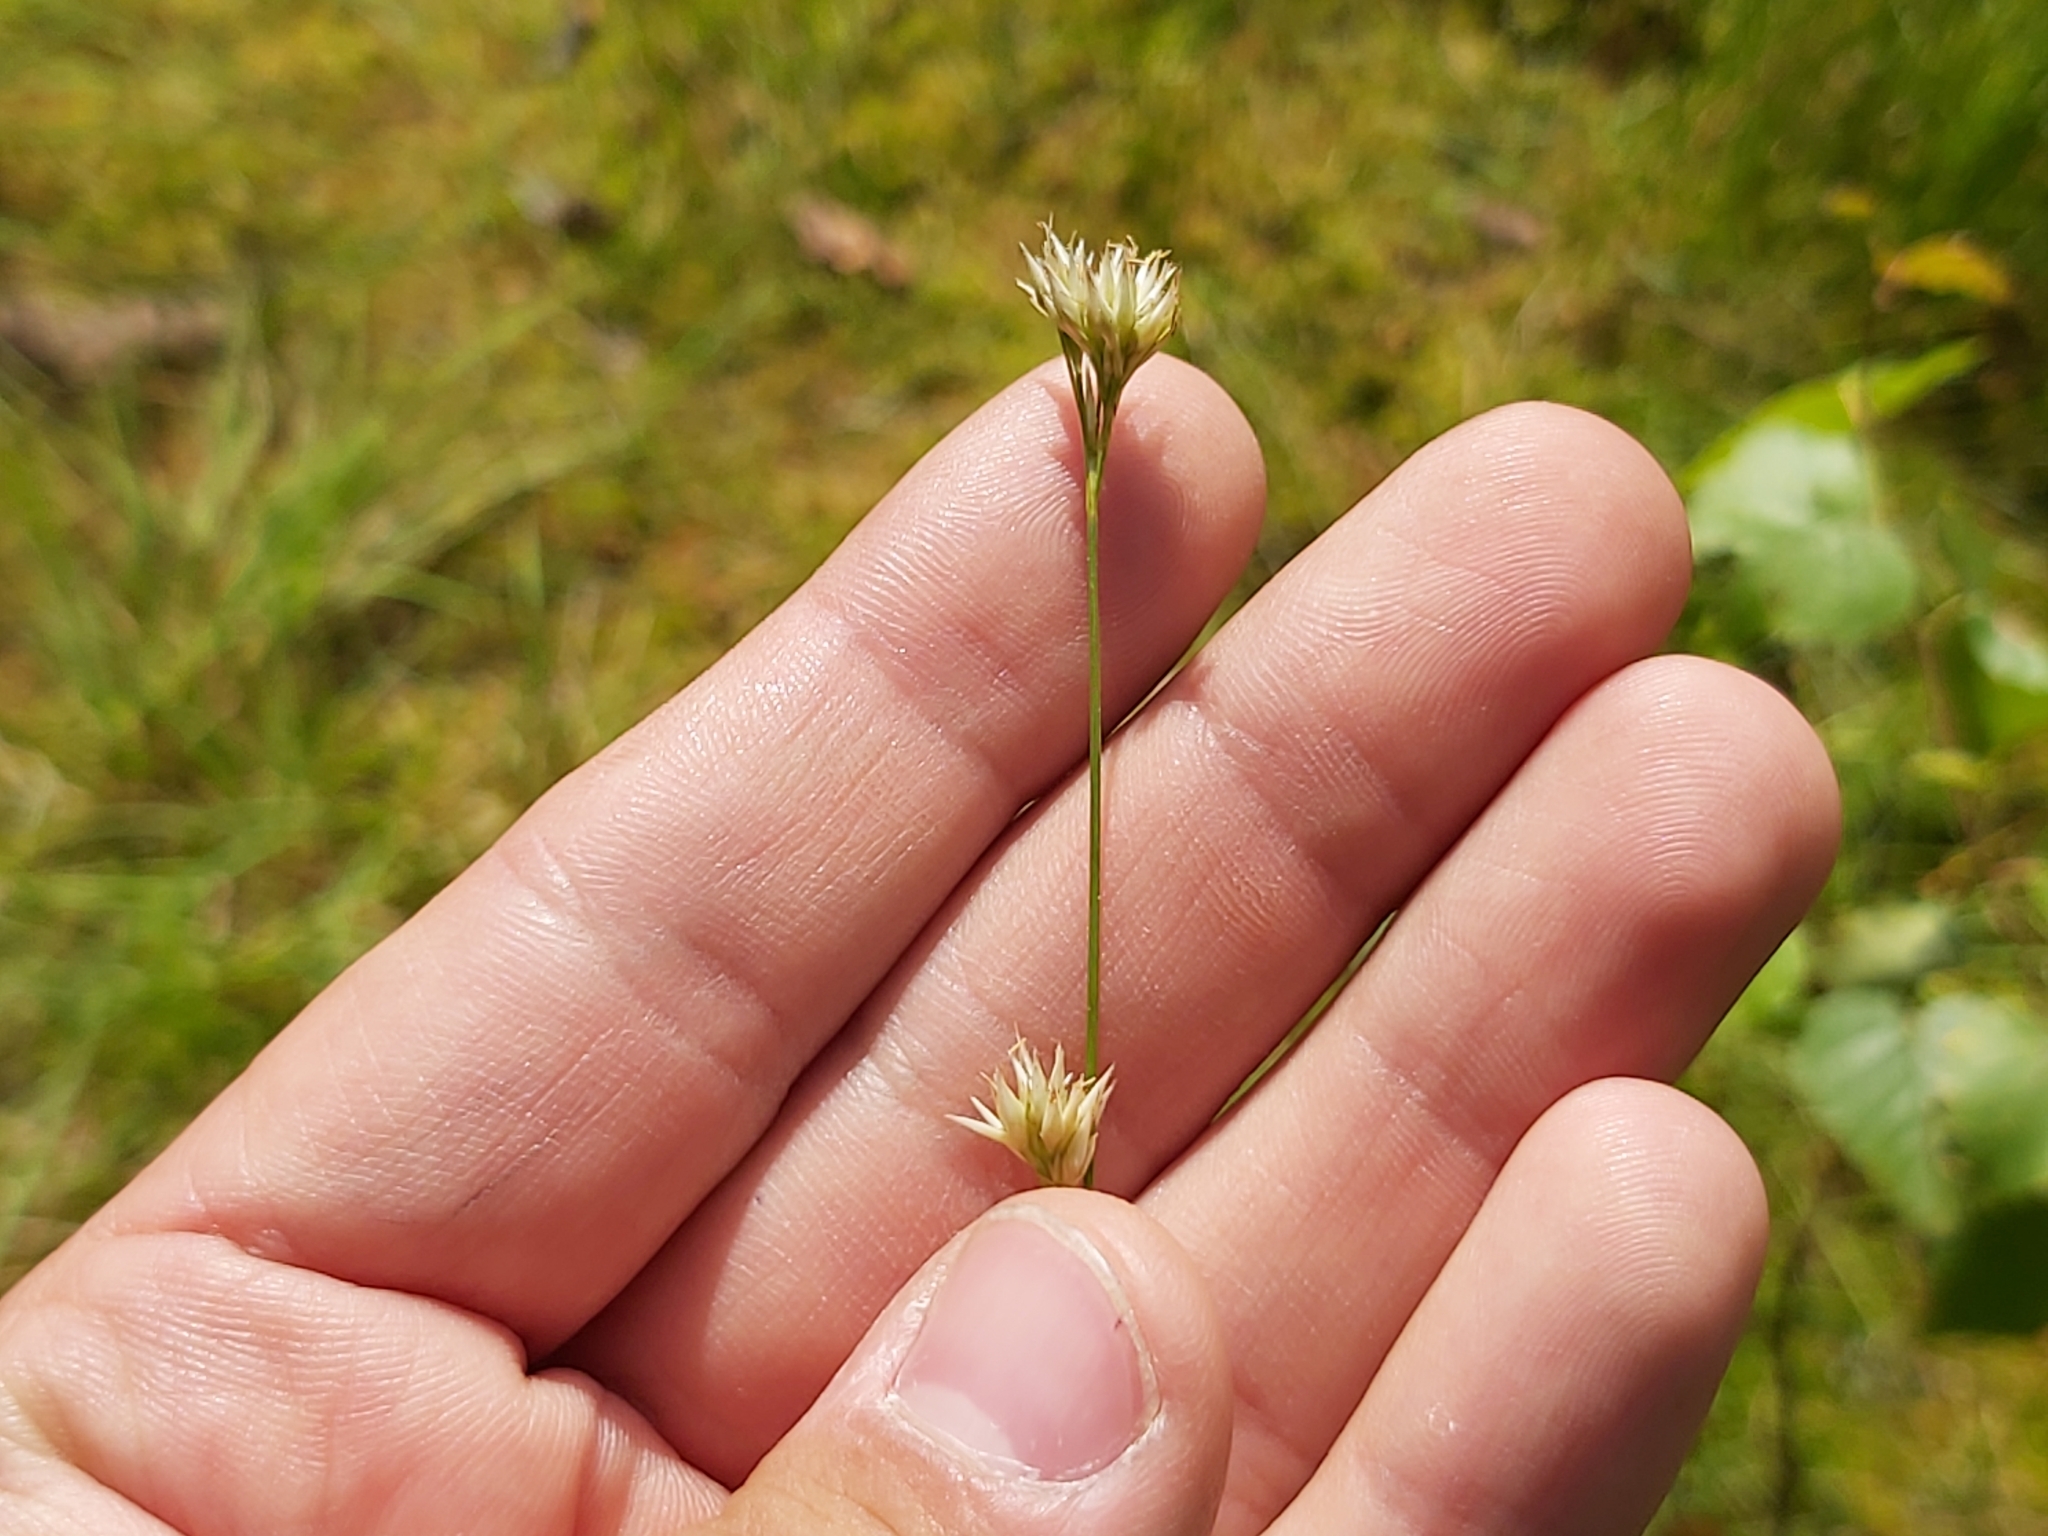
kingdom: Plantae
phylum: Tracheophyta
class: Liliopsida
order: Poales
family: Cyperaceae
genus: Rhynchospora
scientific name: Rhynchospora alba
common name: White beak-sedge
